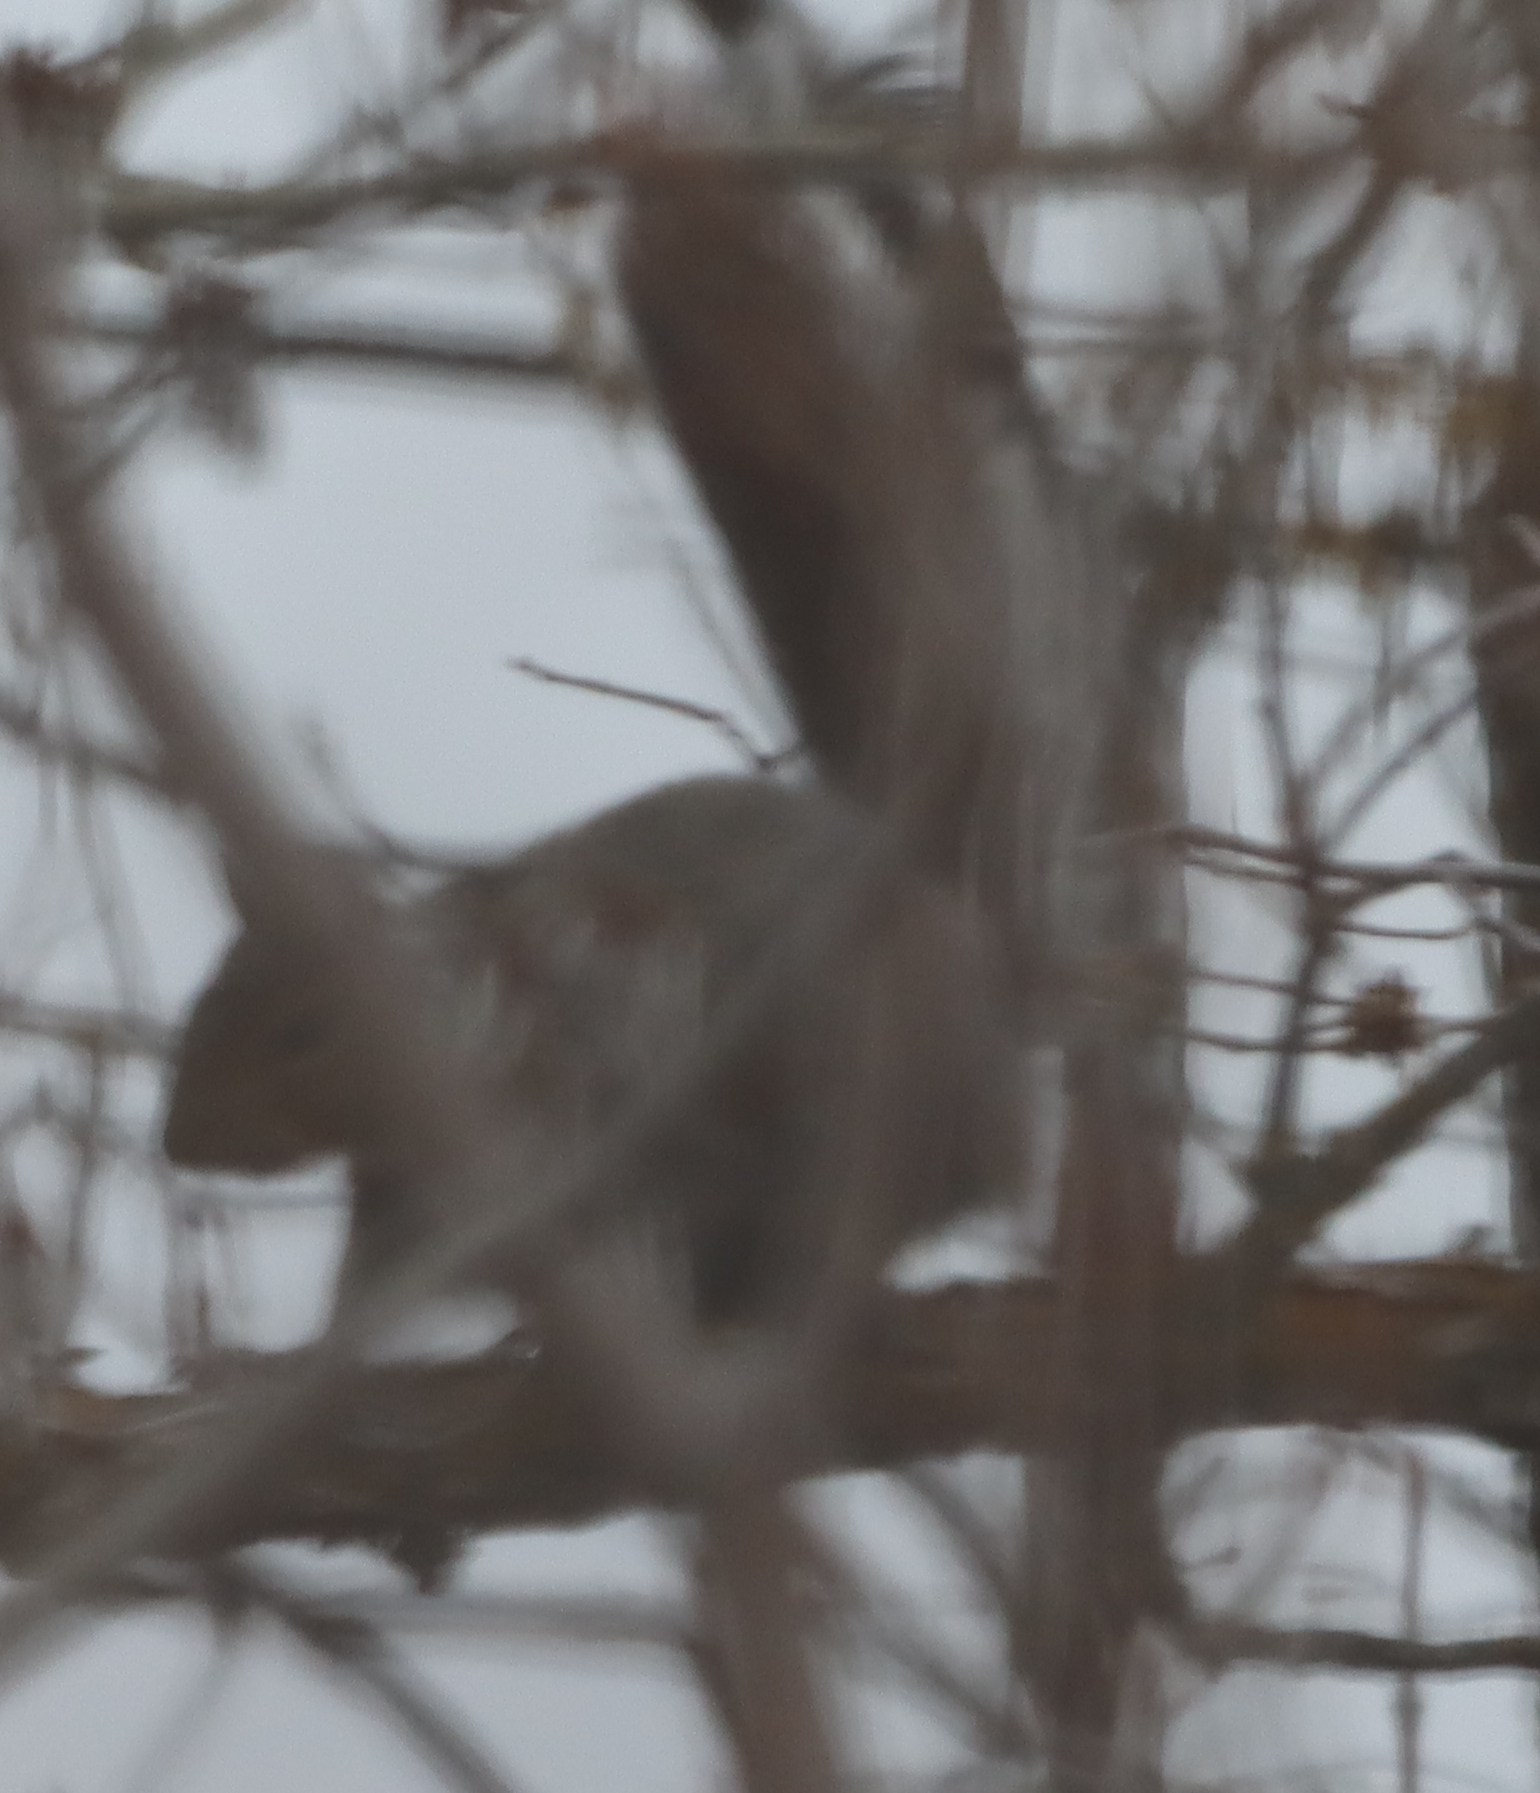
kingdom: Animalia
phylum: Chordata
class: Mammalia
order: Rodentia
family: Sciuridae
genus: Sciurus
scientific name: Sciurus carolinensis
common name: Eastern gray squirrel
